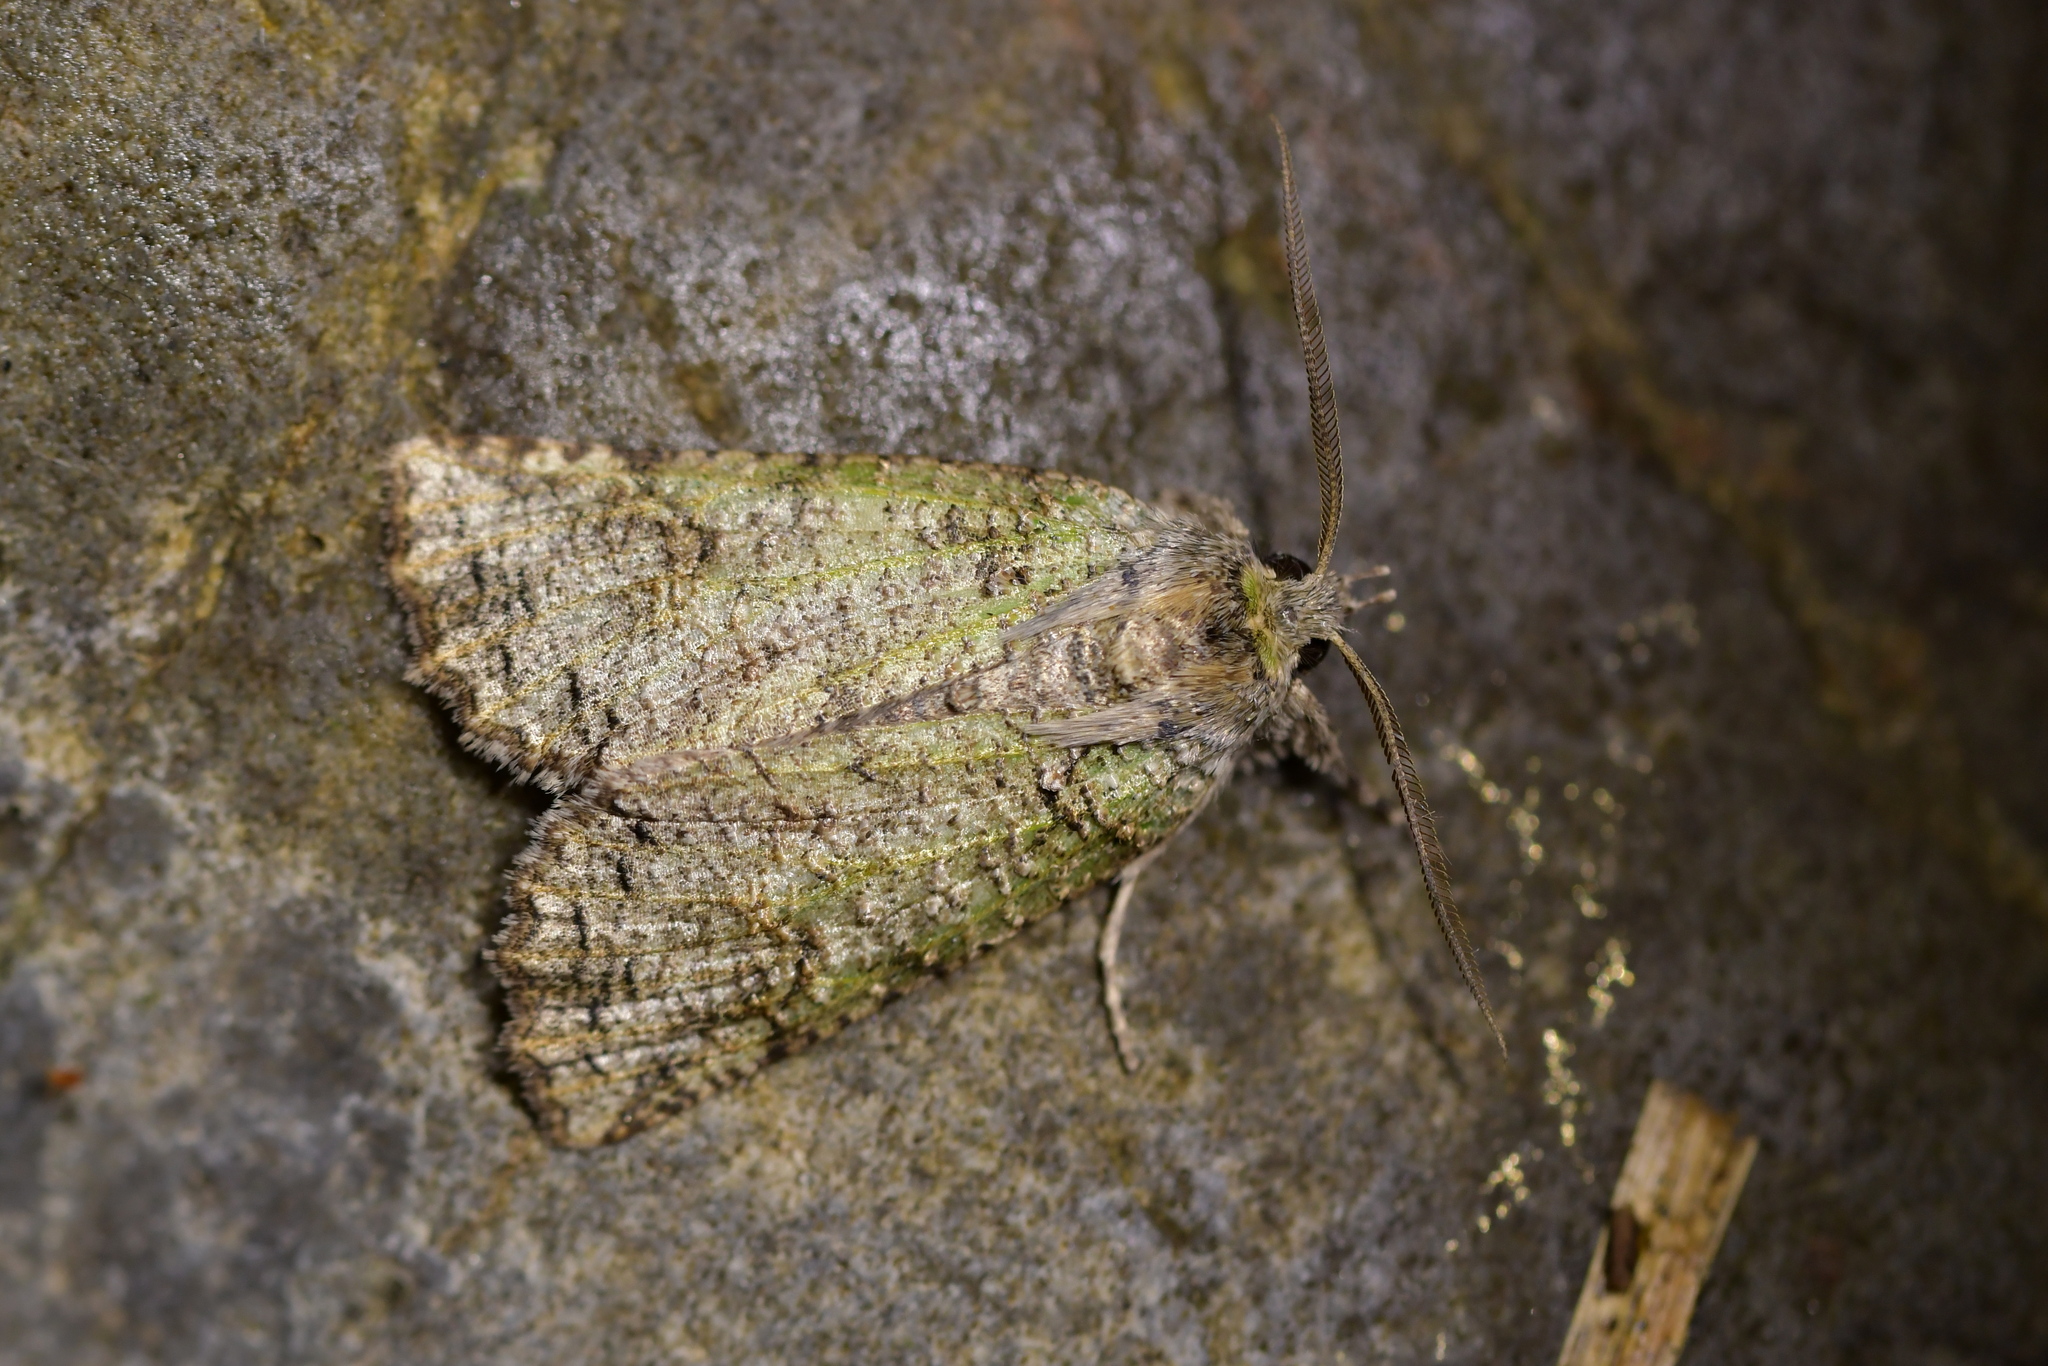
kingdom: Animalia
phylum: Arthropoda
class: Insecta
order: Lepidoptera
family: Geometridae
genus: Declana
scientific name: Declana floccosa
